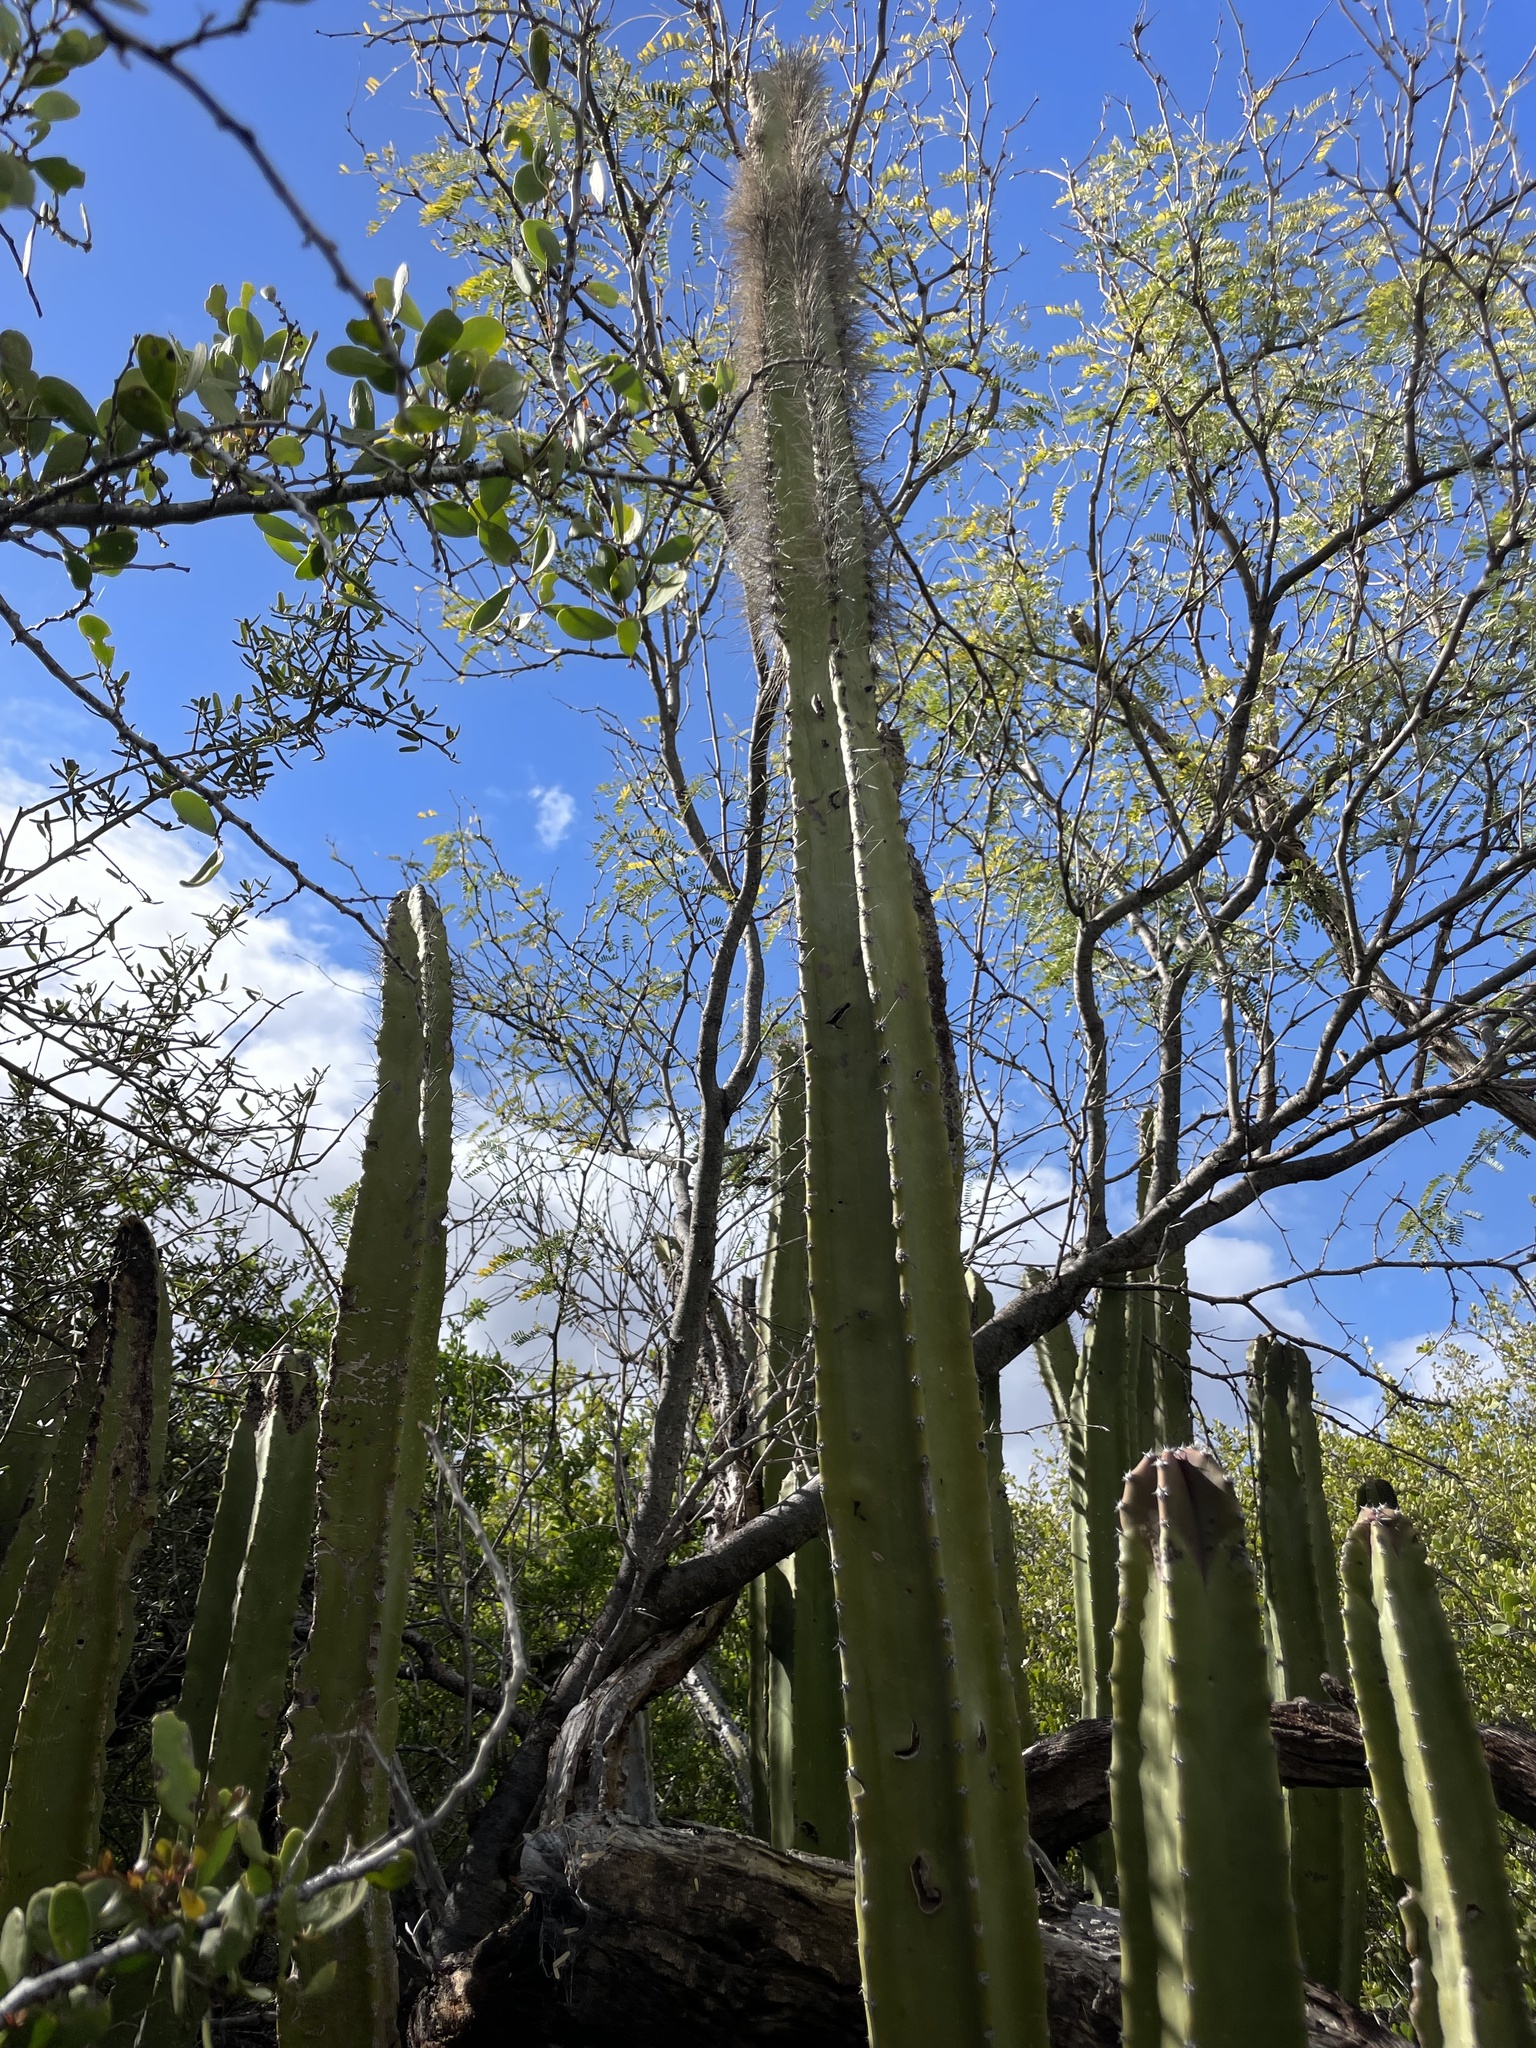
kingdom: Plantae
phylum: Tracheophyta
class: Magnoliopsida
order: Caryophyllales
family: Cactaceae
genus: Pachycereus
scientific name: Pachycereus schottii
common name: Senita cactus
